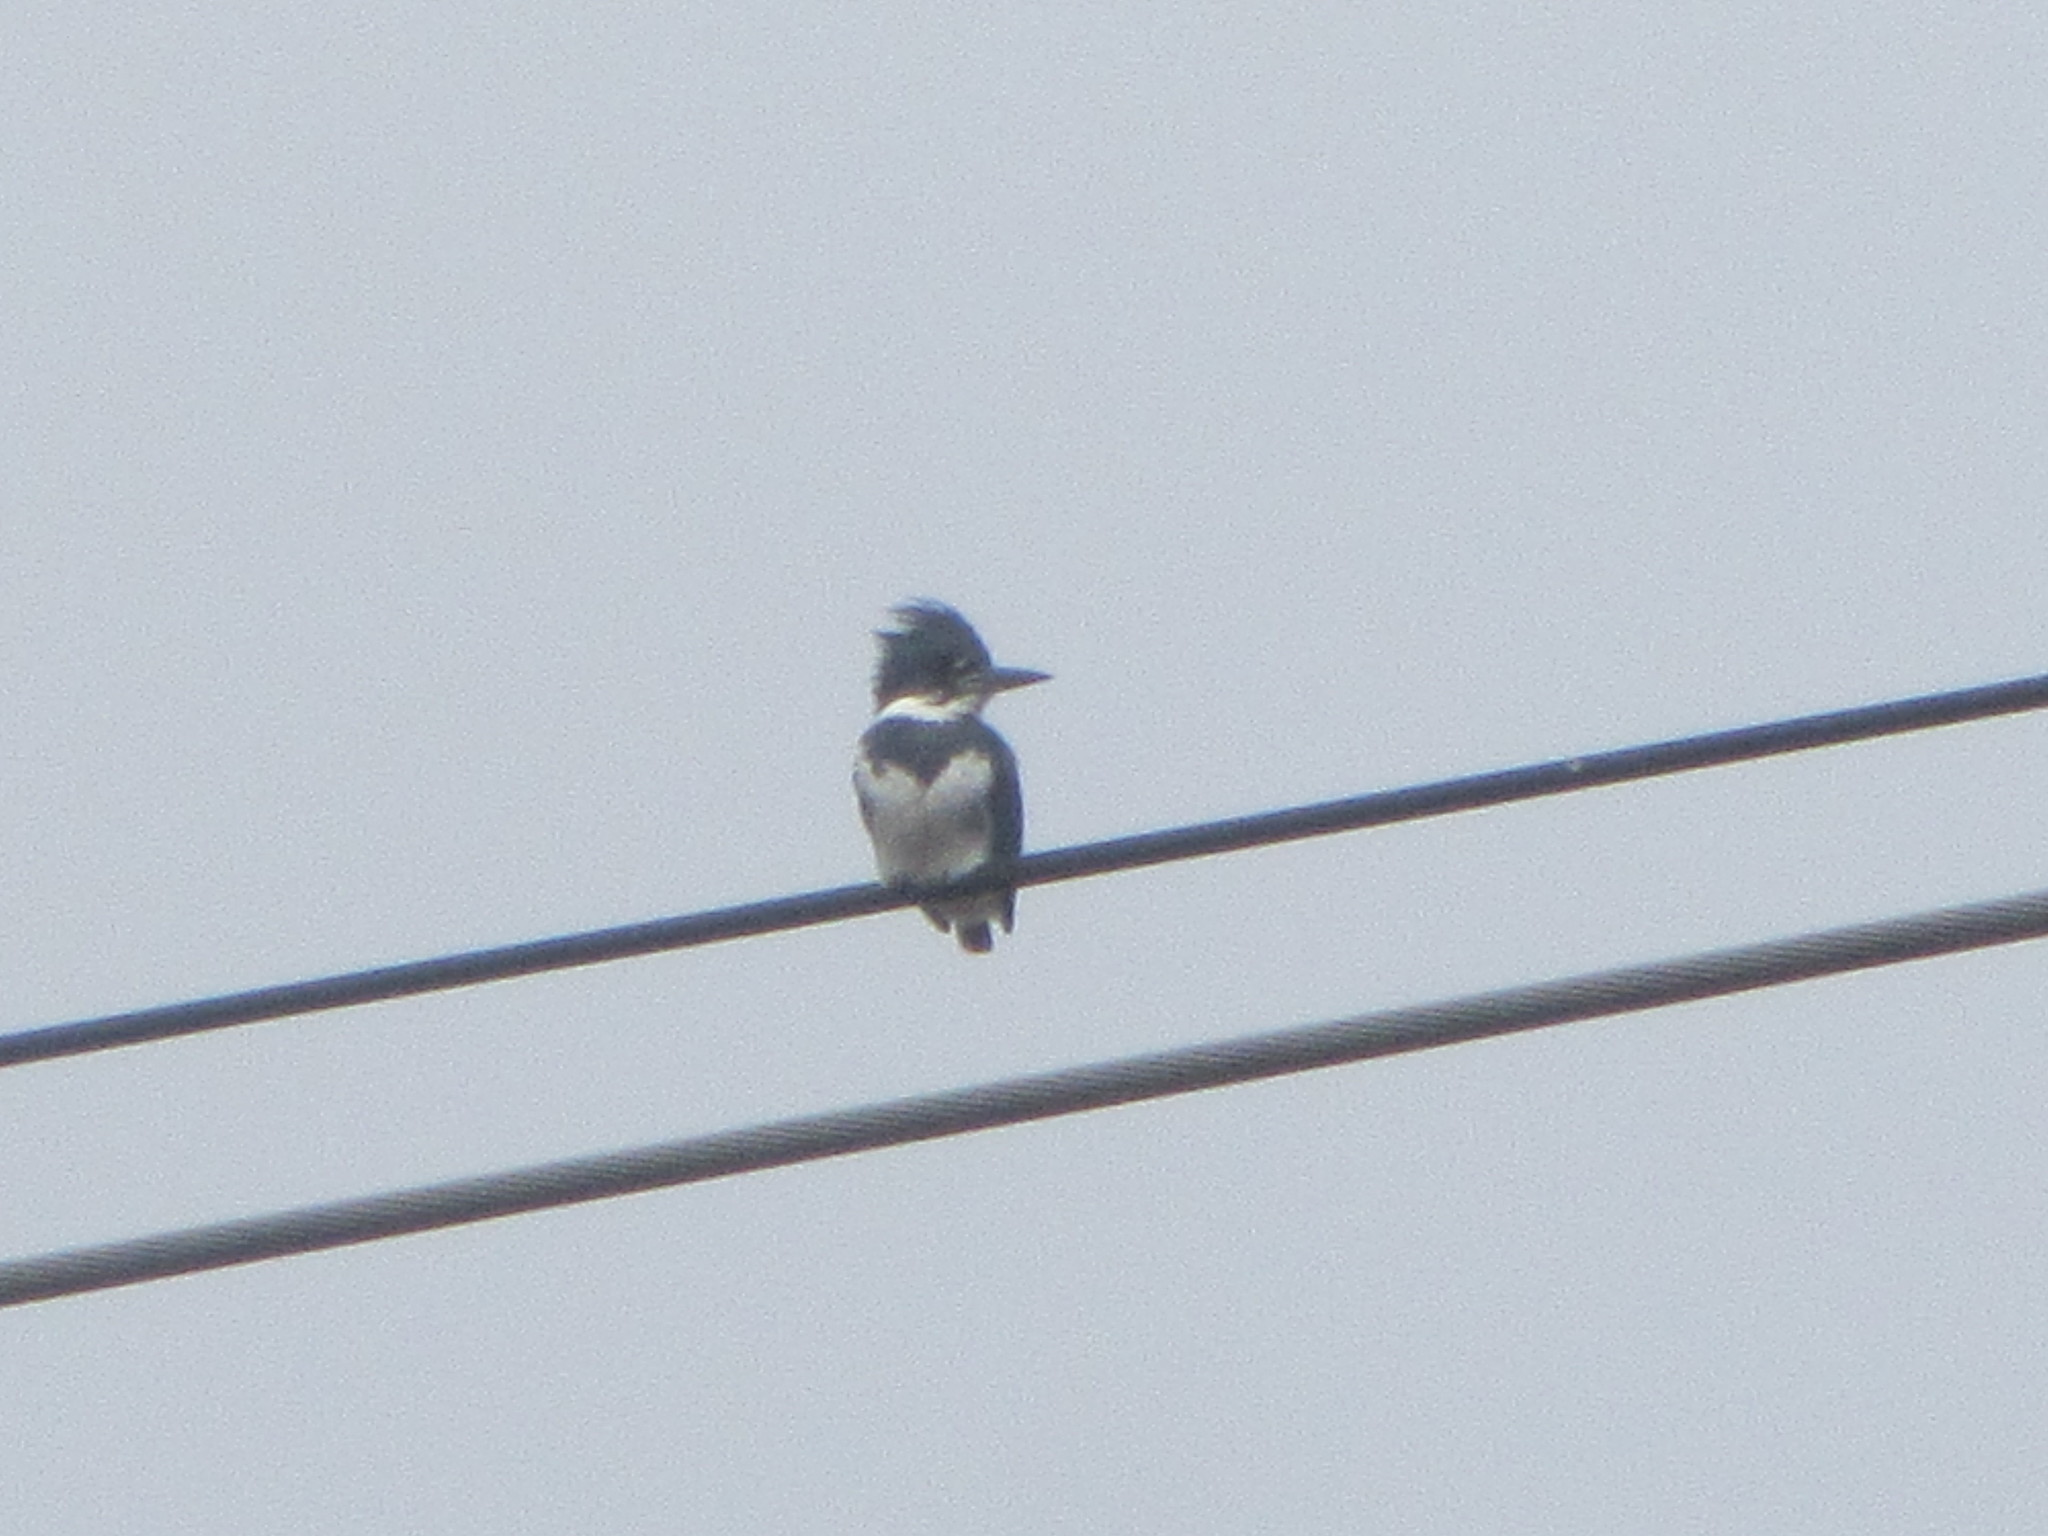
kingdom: Animalia
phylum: Chordata
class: Aves
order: Coraciiformes
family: Alcedinidae
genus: Megaceryle
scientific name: Megaceryle alcyon
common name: Belted kingfisher
